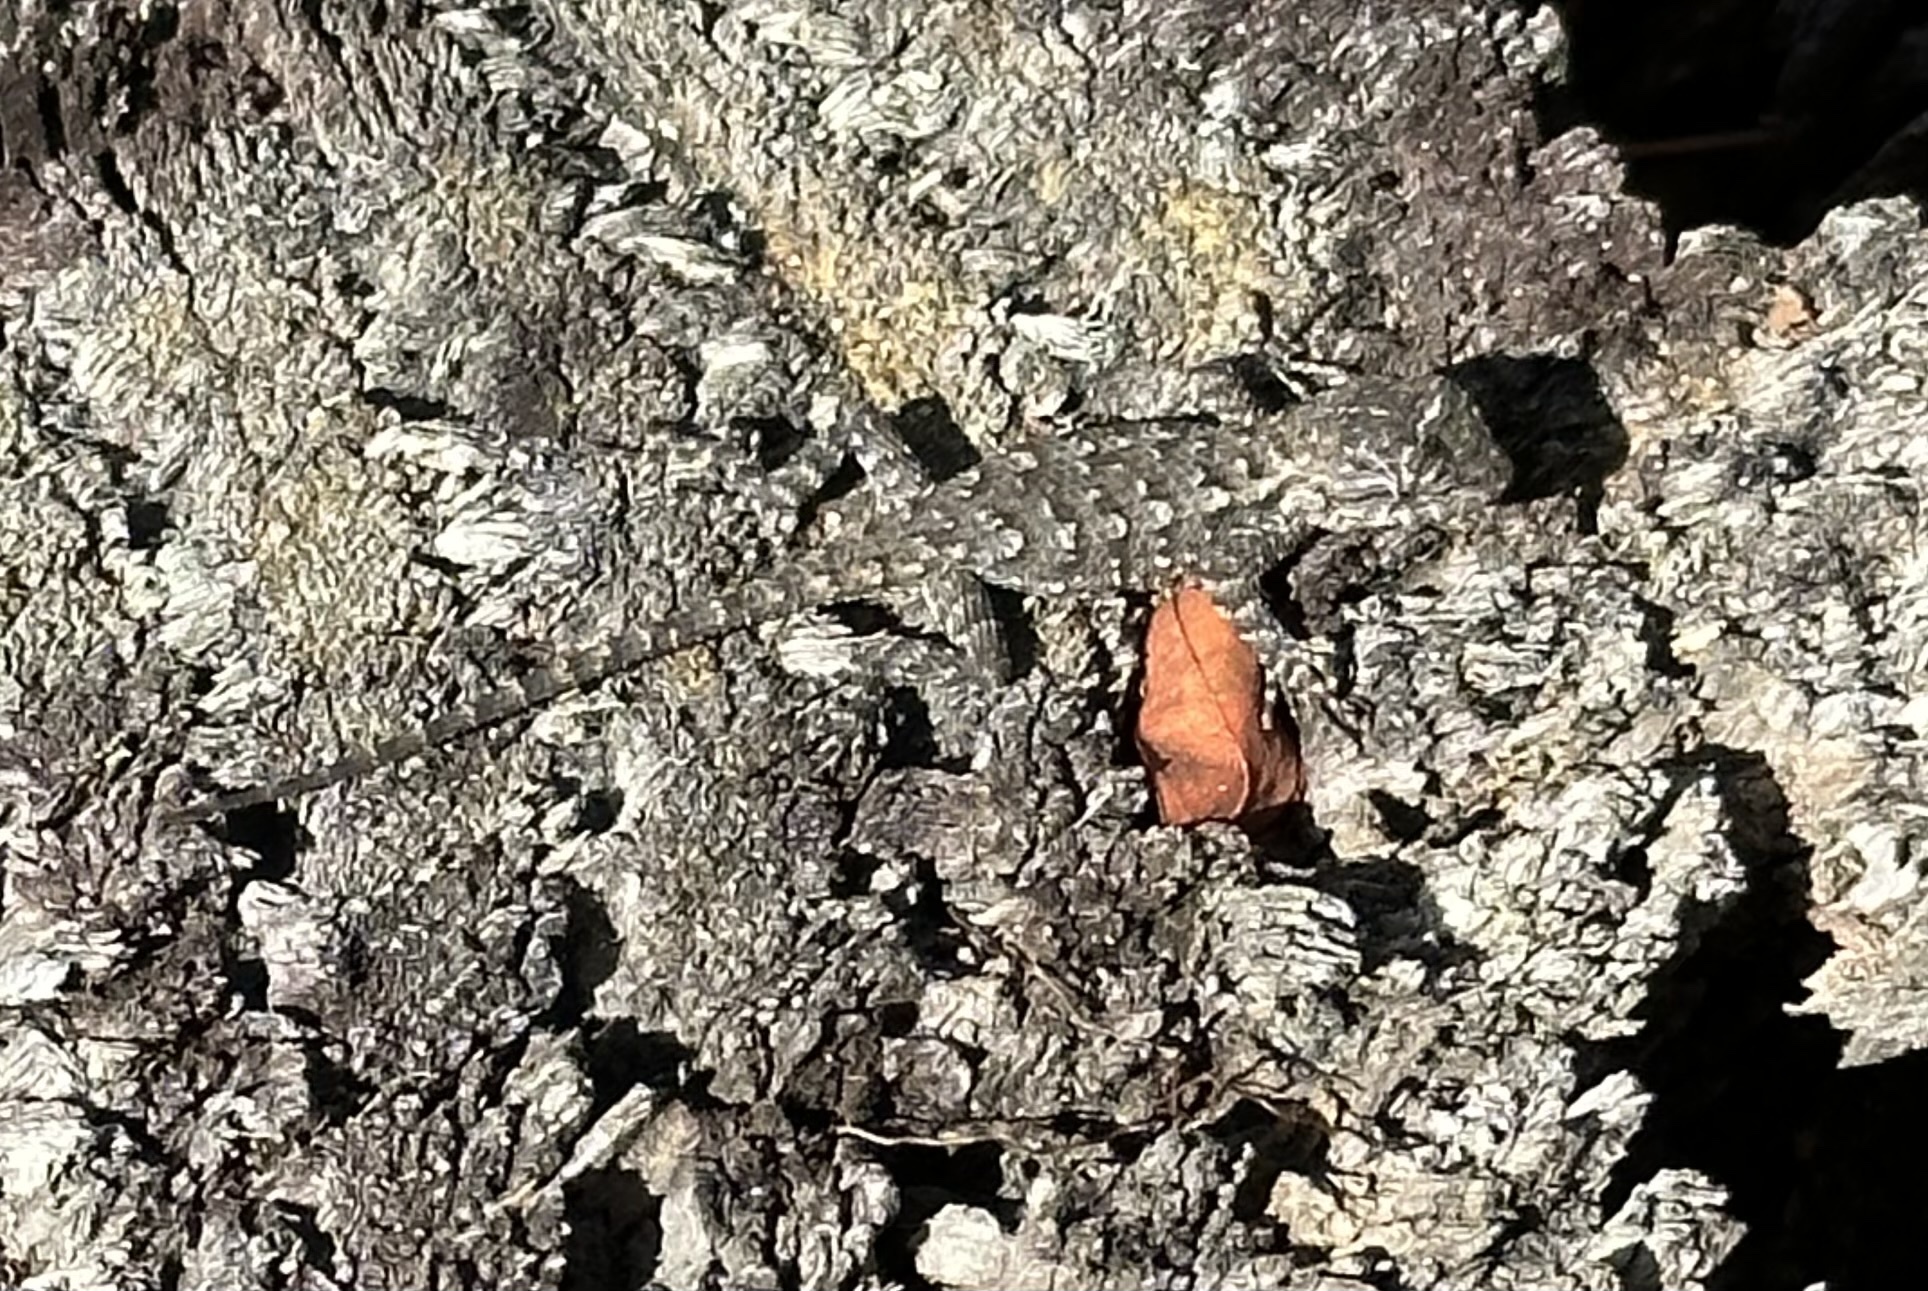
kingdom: Animalia
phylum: Chordata
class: Squamata
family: Phrynosomatidae
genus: Sceloporus
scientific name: Sceloporus undulatus
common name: Eastern fence lizard
